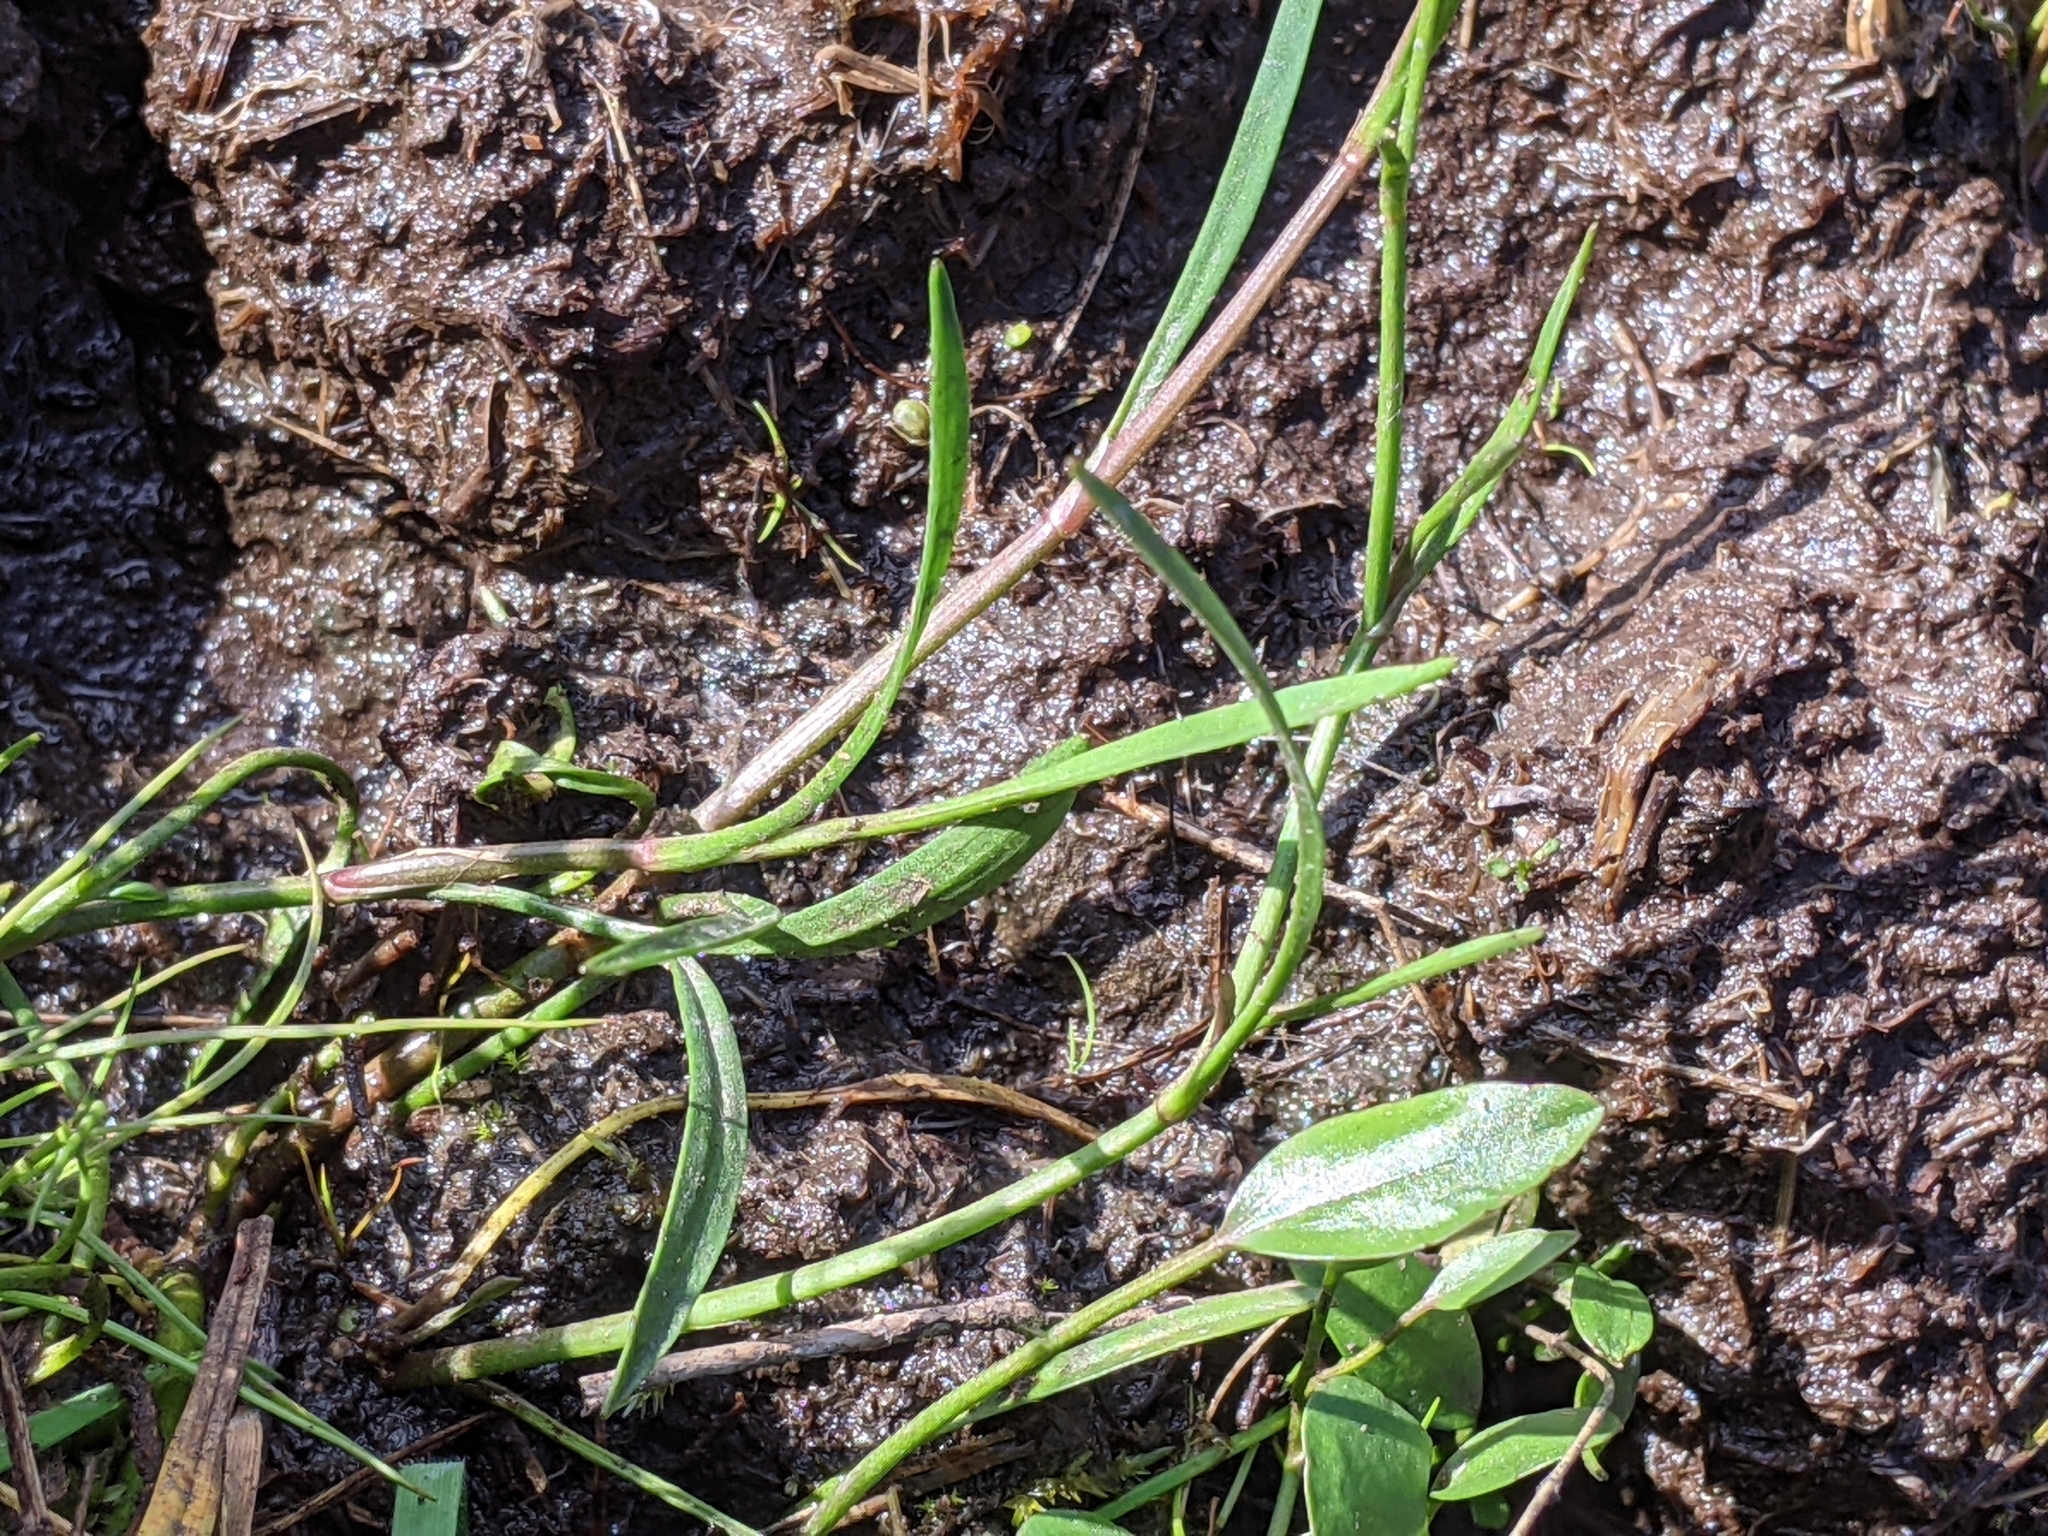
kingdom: Plantae
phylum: Tracheophyta
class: Magnoliopsida
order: Ranunculales
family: Ranunculaceae
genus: Ranunculus
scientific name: Ranunculus flammula
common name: Lesser spearwort
